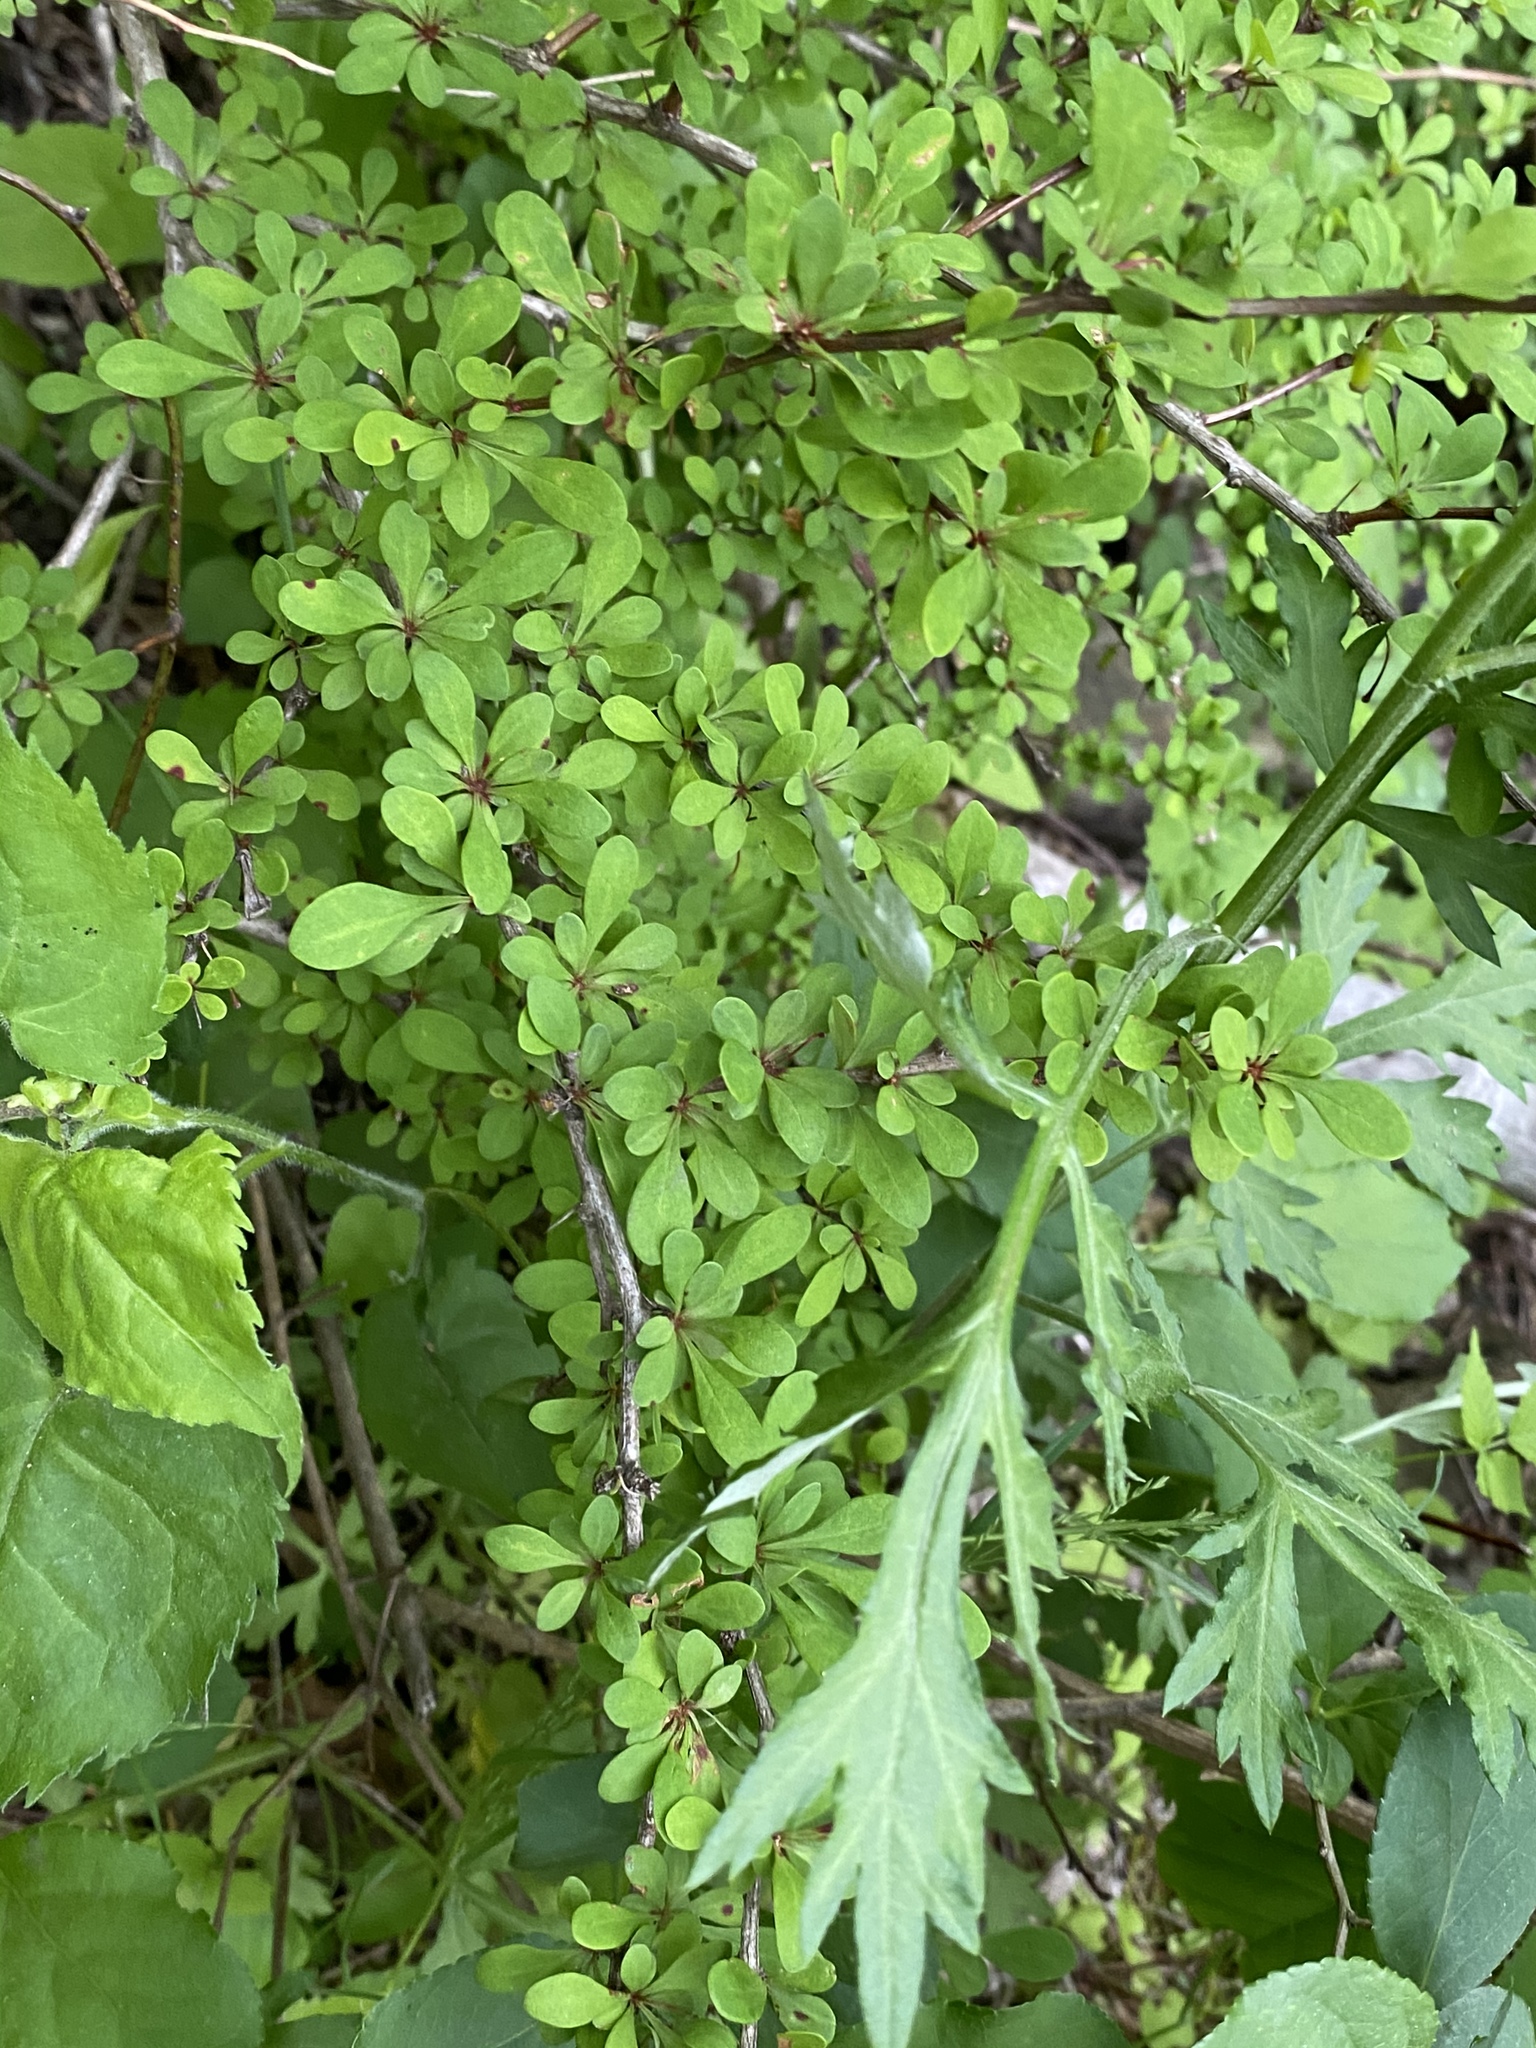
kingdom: Plantae
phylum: Tracheophyta
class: Magnoliopsida
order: Ranunculales
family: Berberidaceae
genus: Berberis
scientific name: Berberis thunbergii
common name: Japanese barberry
